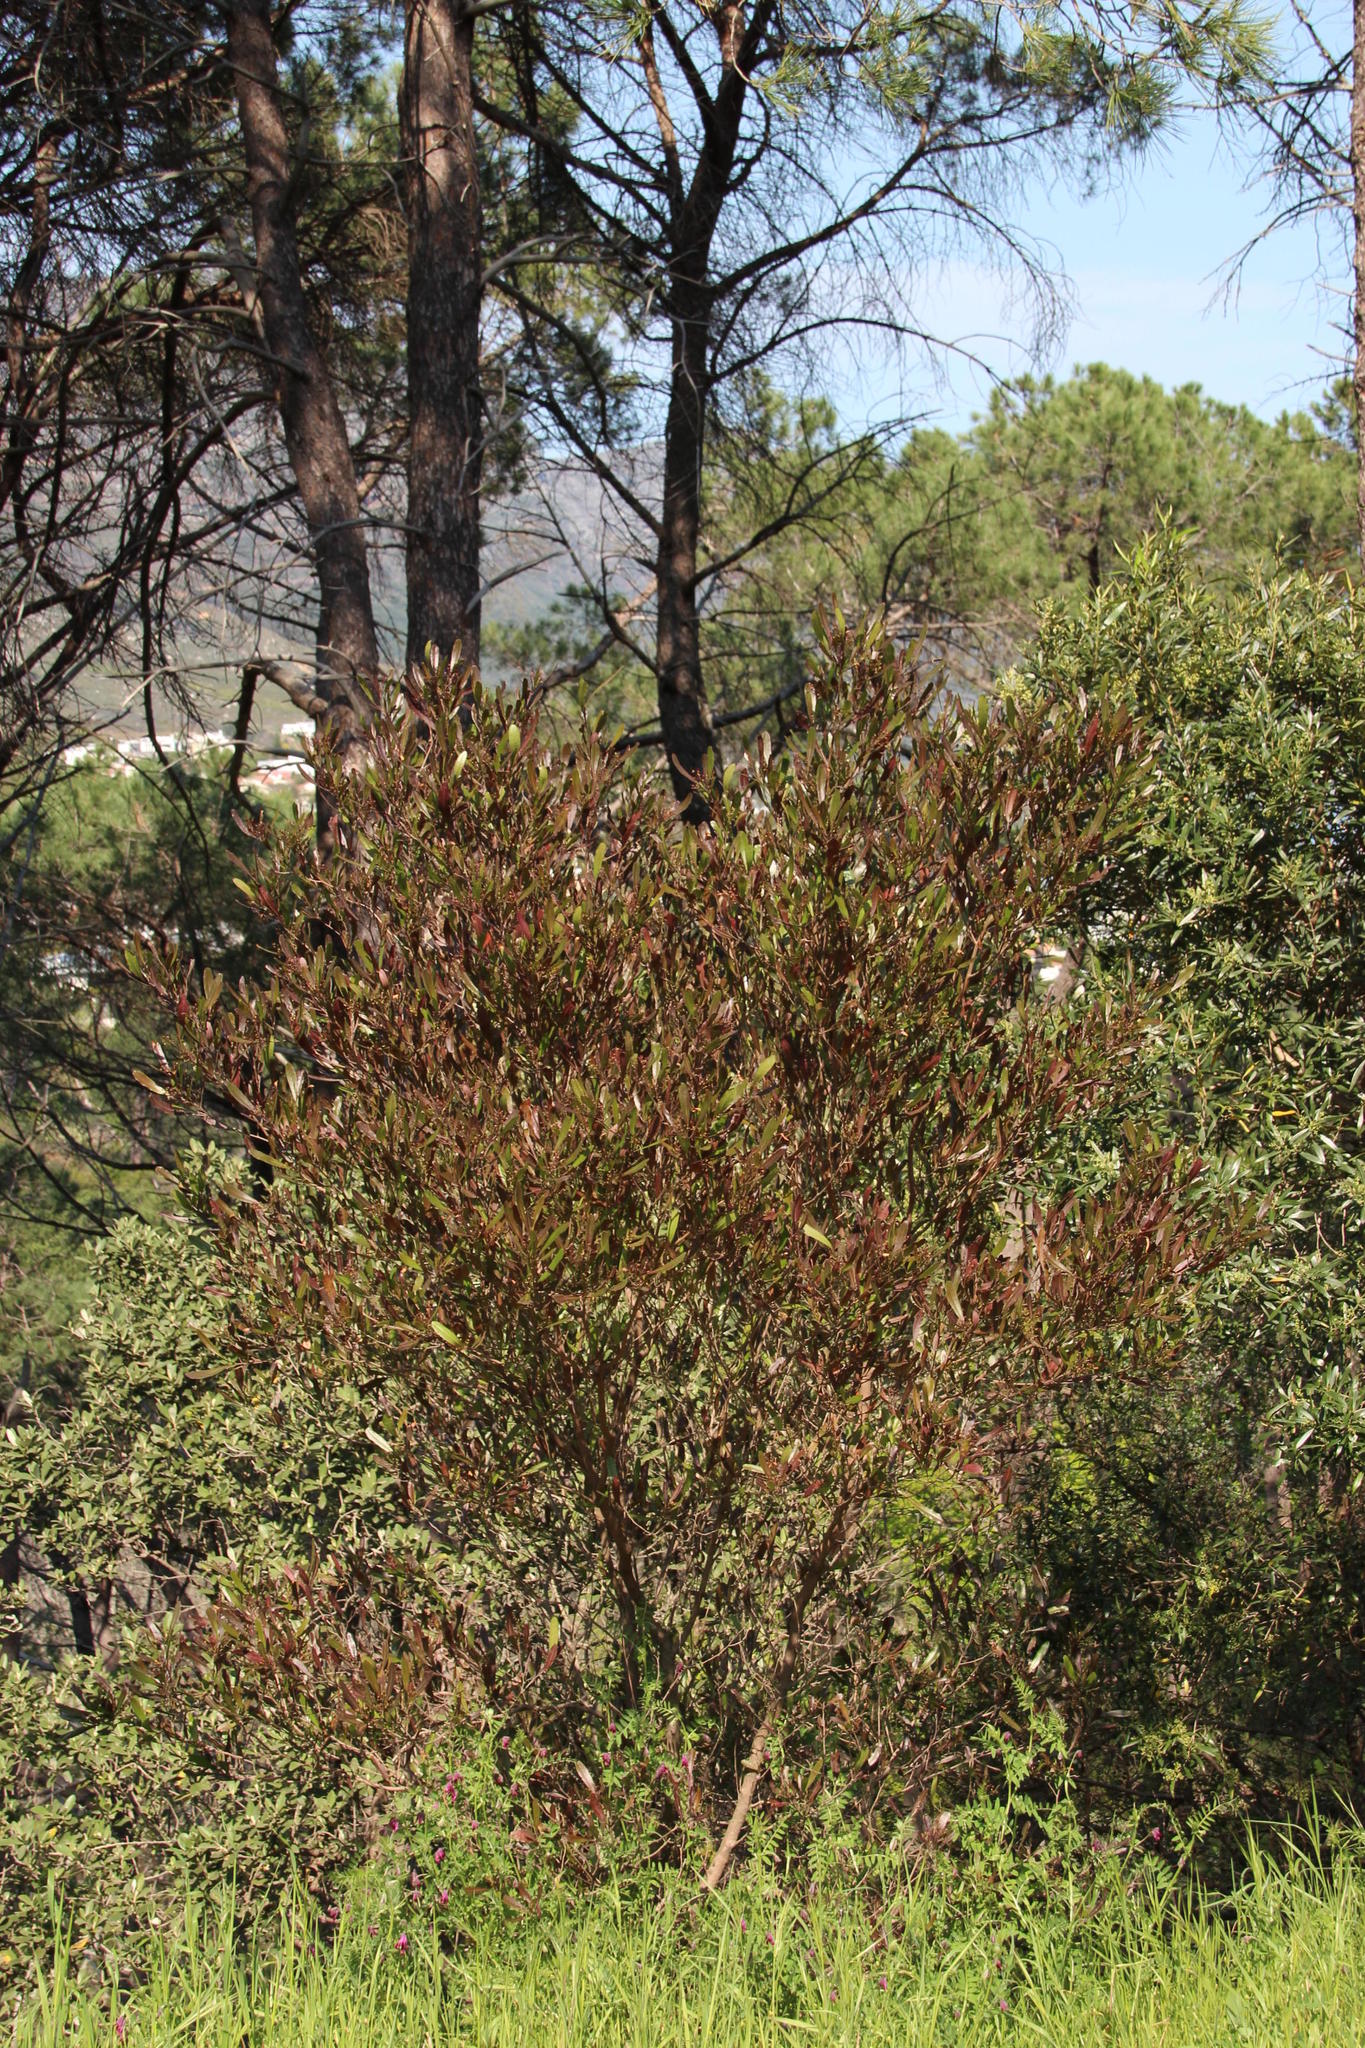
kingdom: Plantae
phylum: Tracheophyta
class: Magnoliopsida
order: Sapindales
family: Sapindaceae
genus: Dodonaea
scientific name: Dodonaea viscosa
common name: Hopbush
